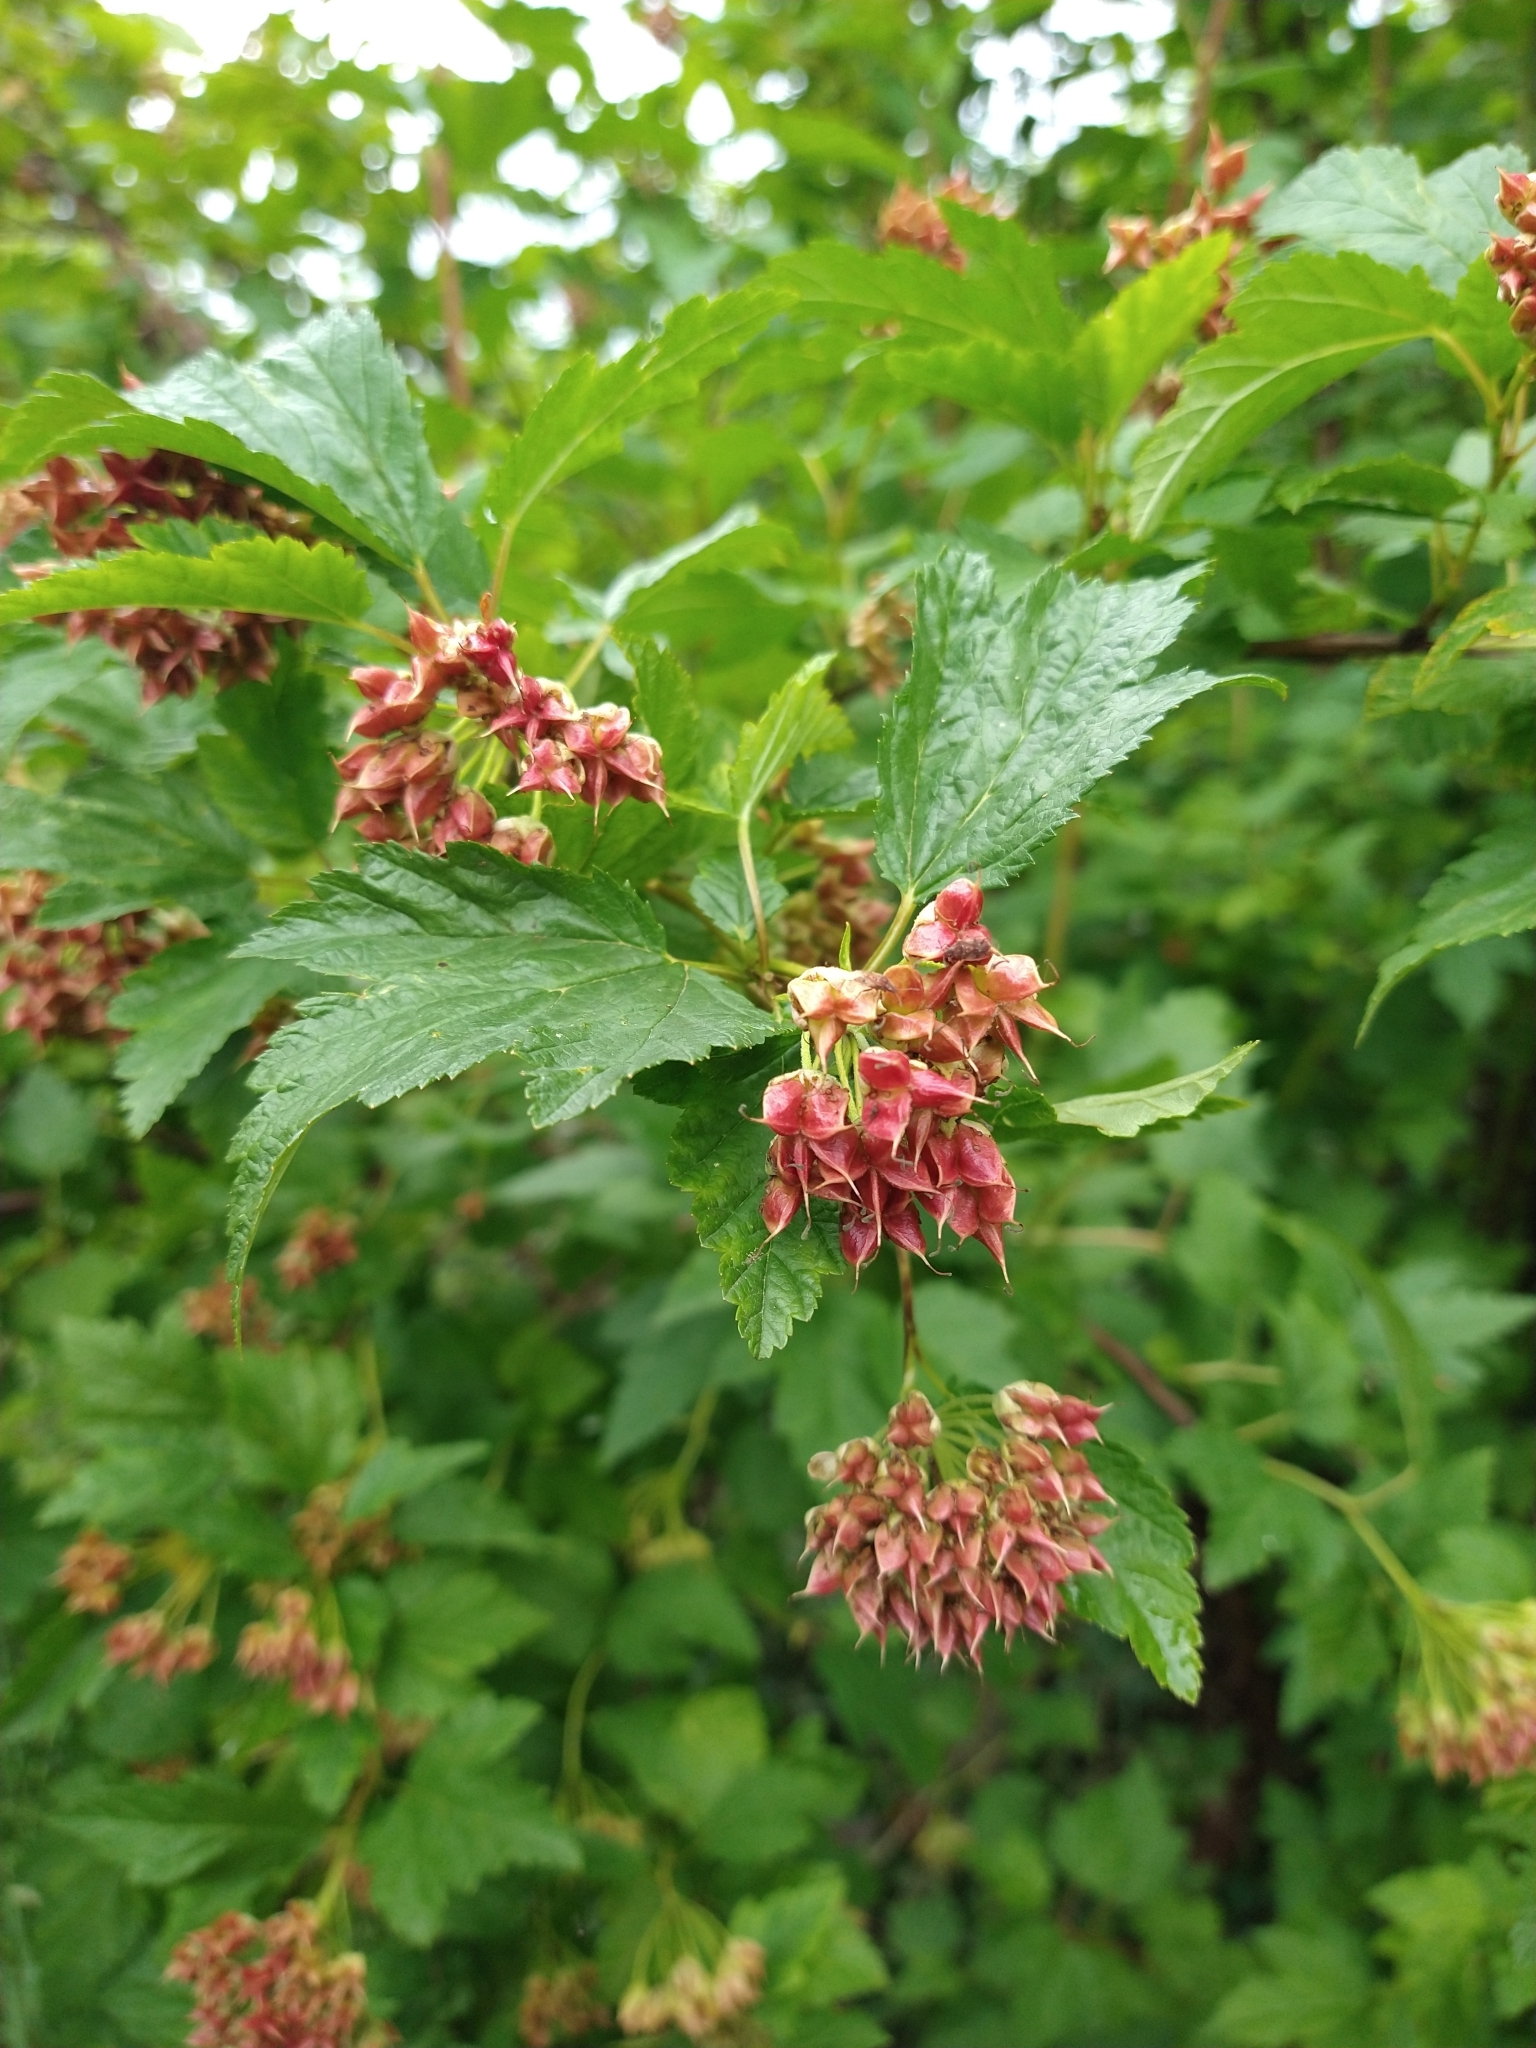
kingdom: Plantae
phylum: Tracheophyta
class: Magnoliopsida
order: Rosales
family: Rosaceae
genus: Physocarpus
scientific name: Physocarpus capitatus
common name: Pacific ninebark
